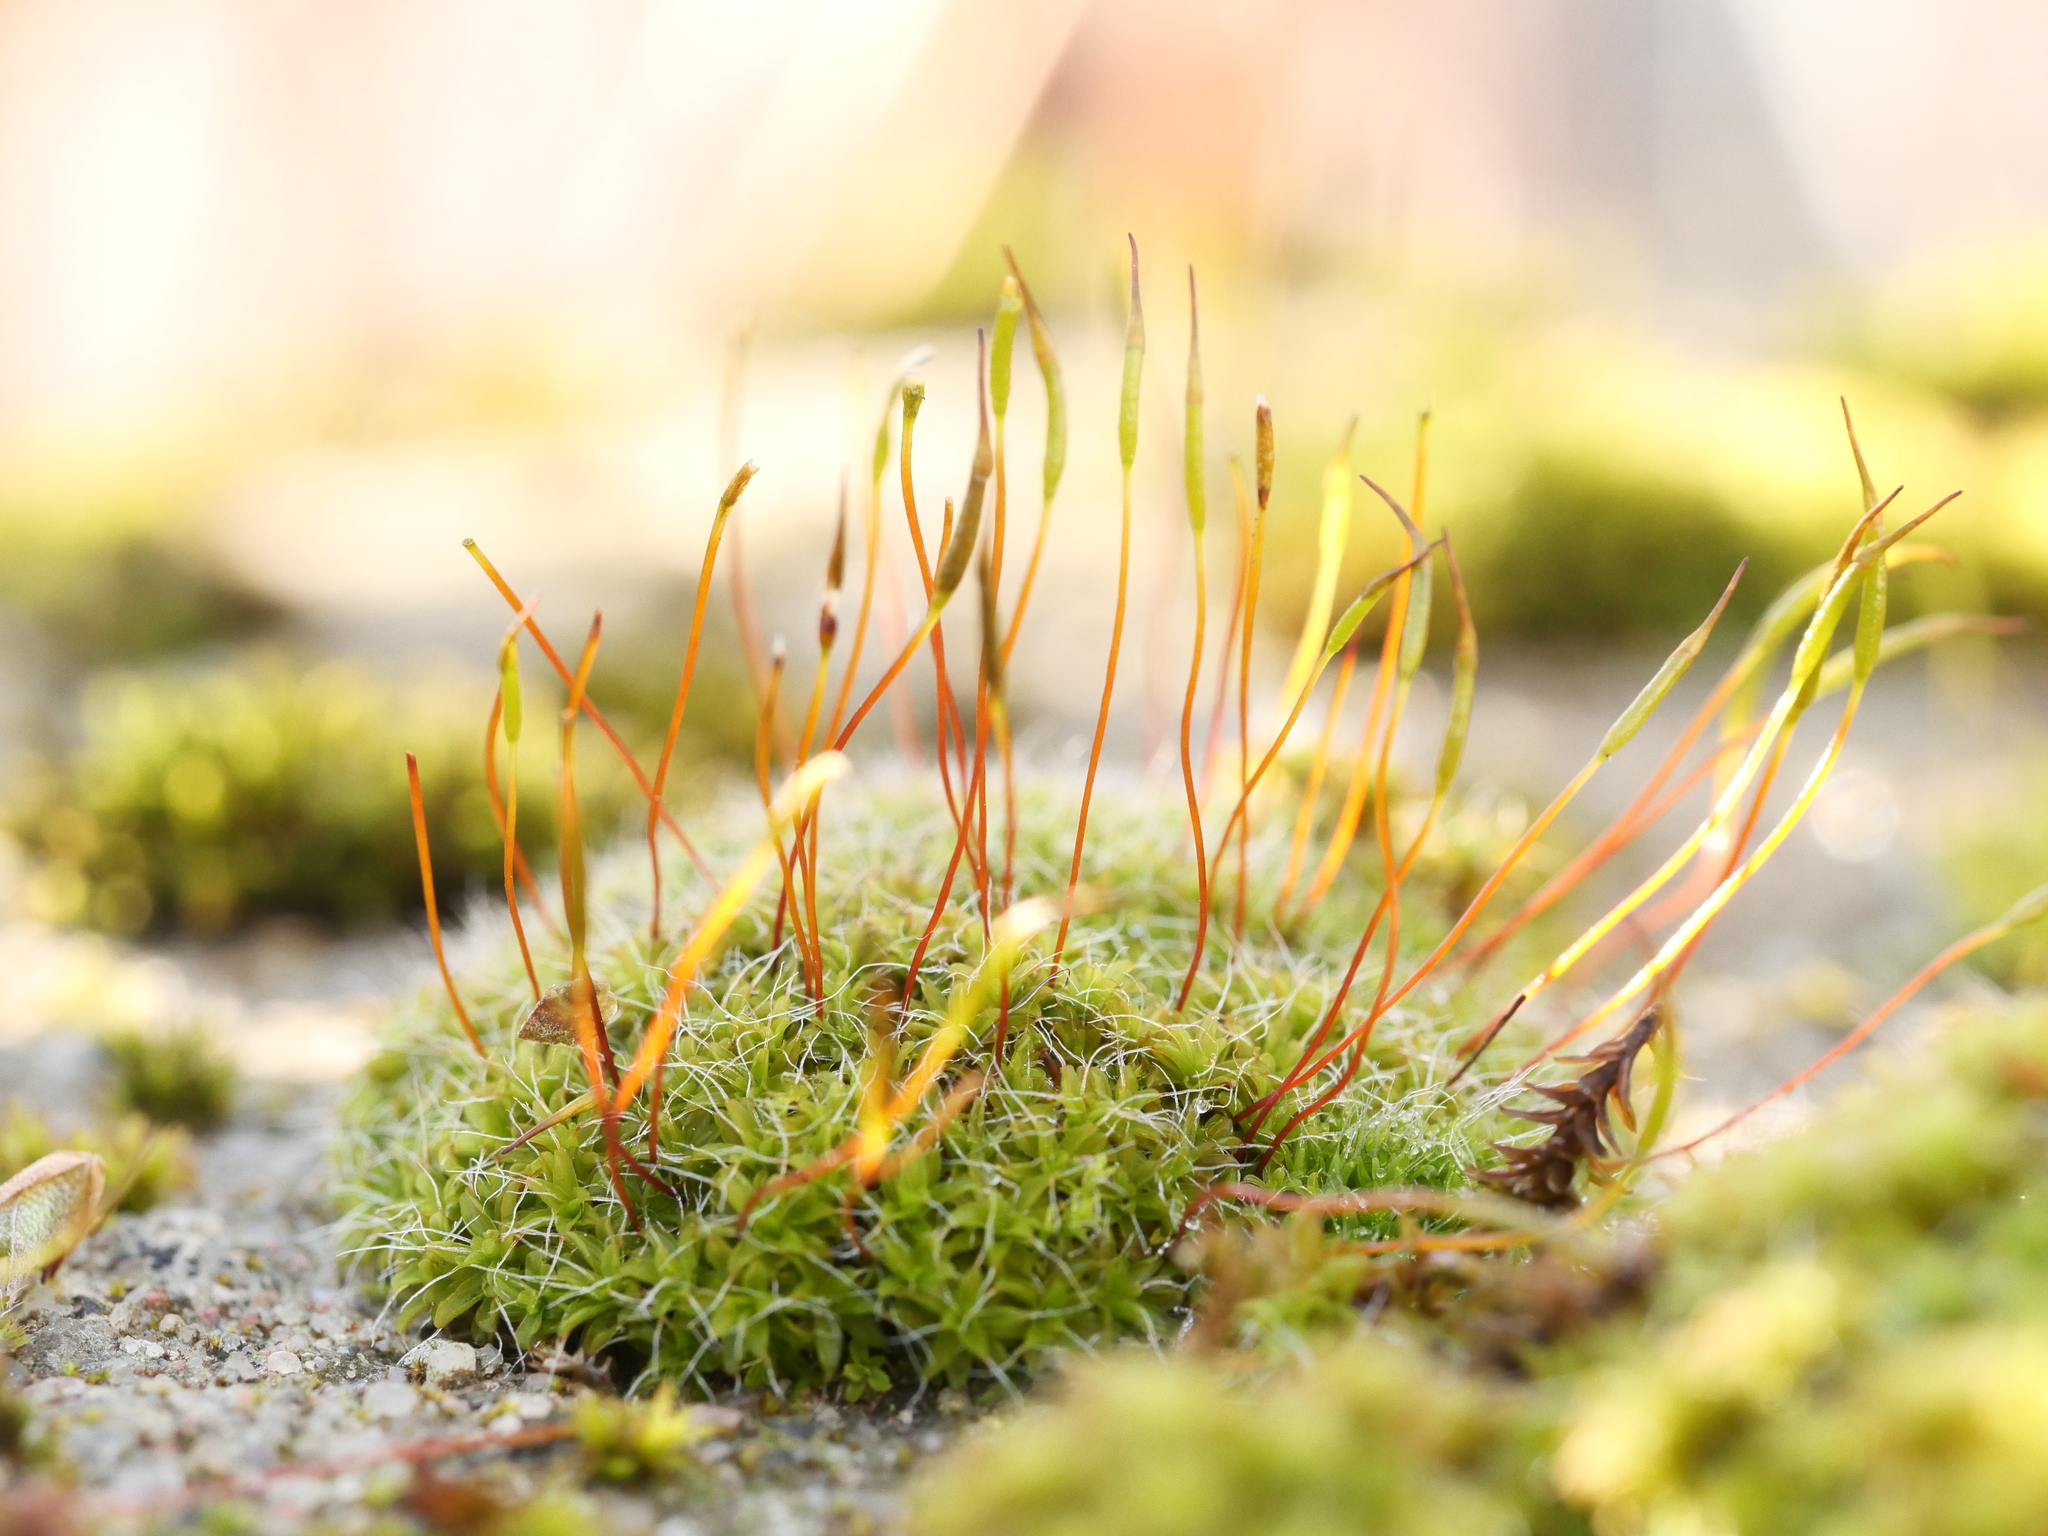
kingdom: Plantae
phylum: Bryophyta
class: Bryopsida
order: Pottiales
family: Pottiaceae
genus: Tortula
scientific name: Tortula muralis
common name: Wall screw-moss
